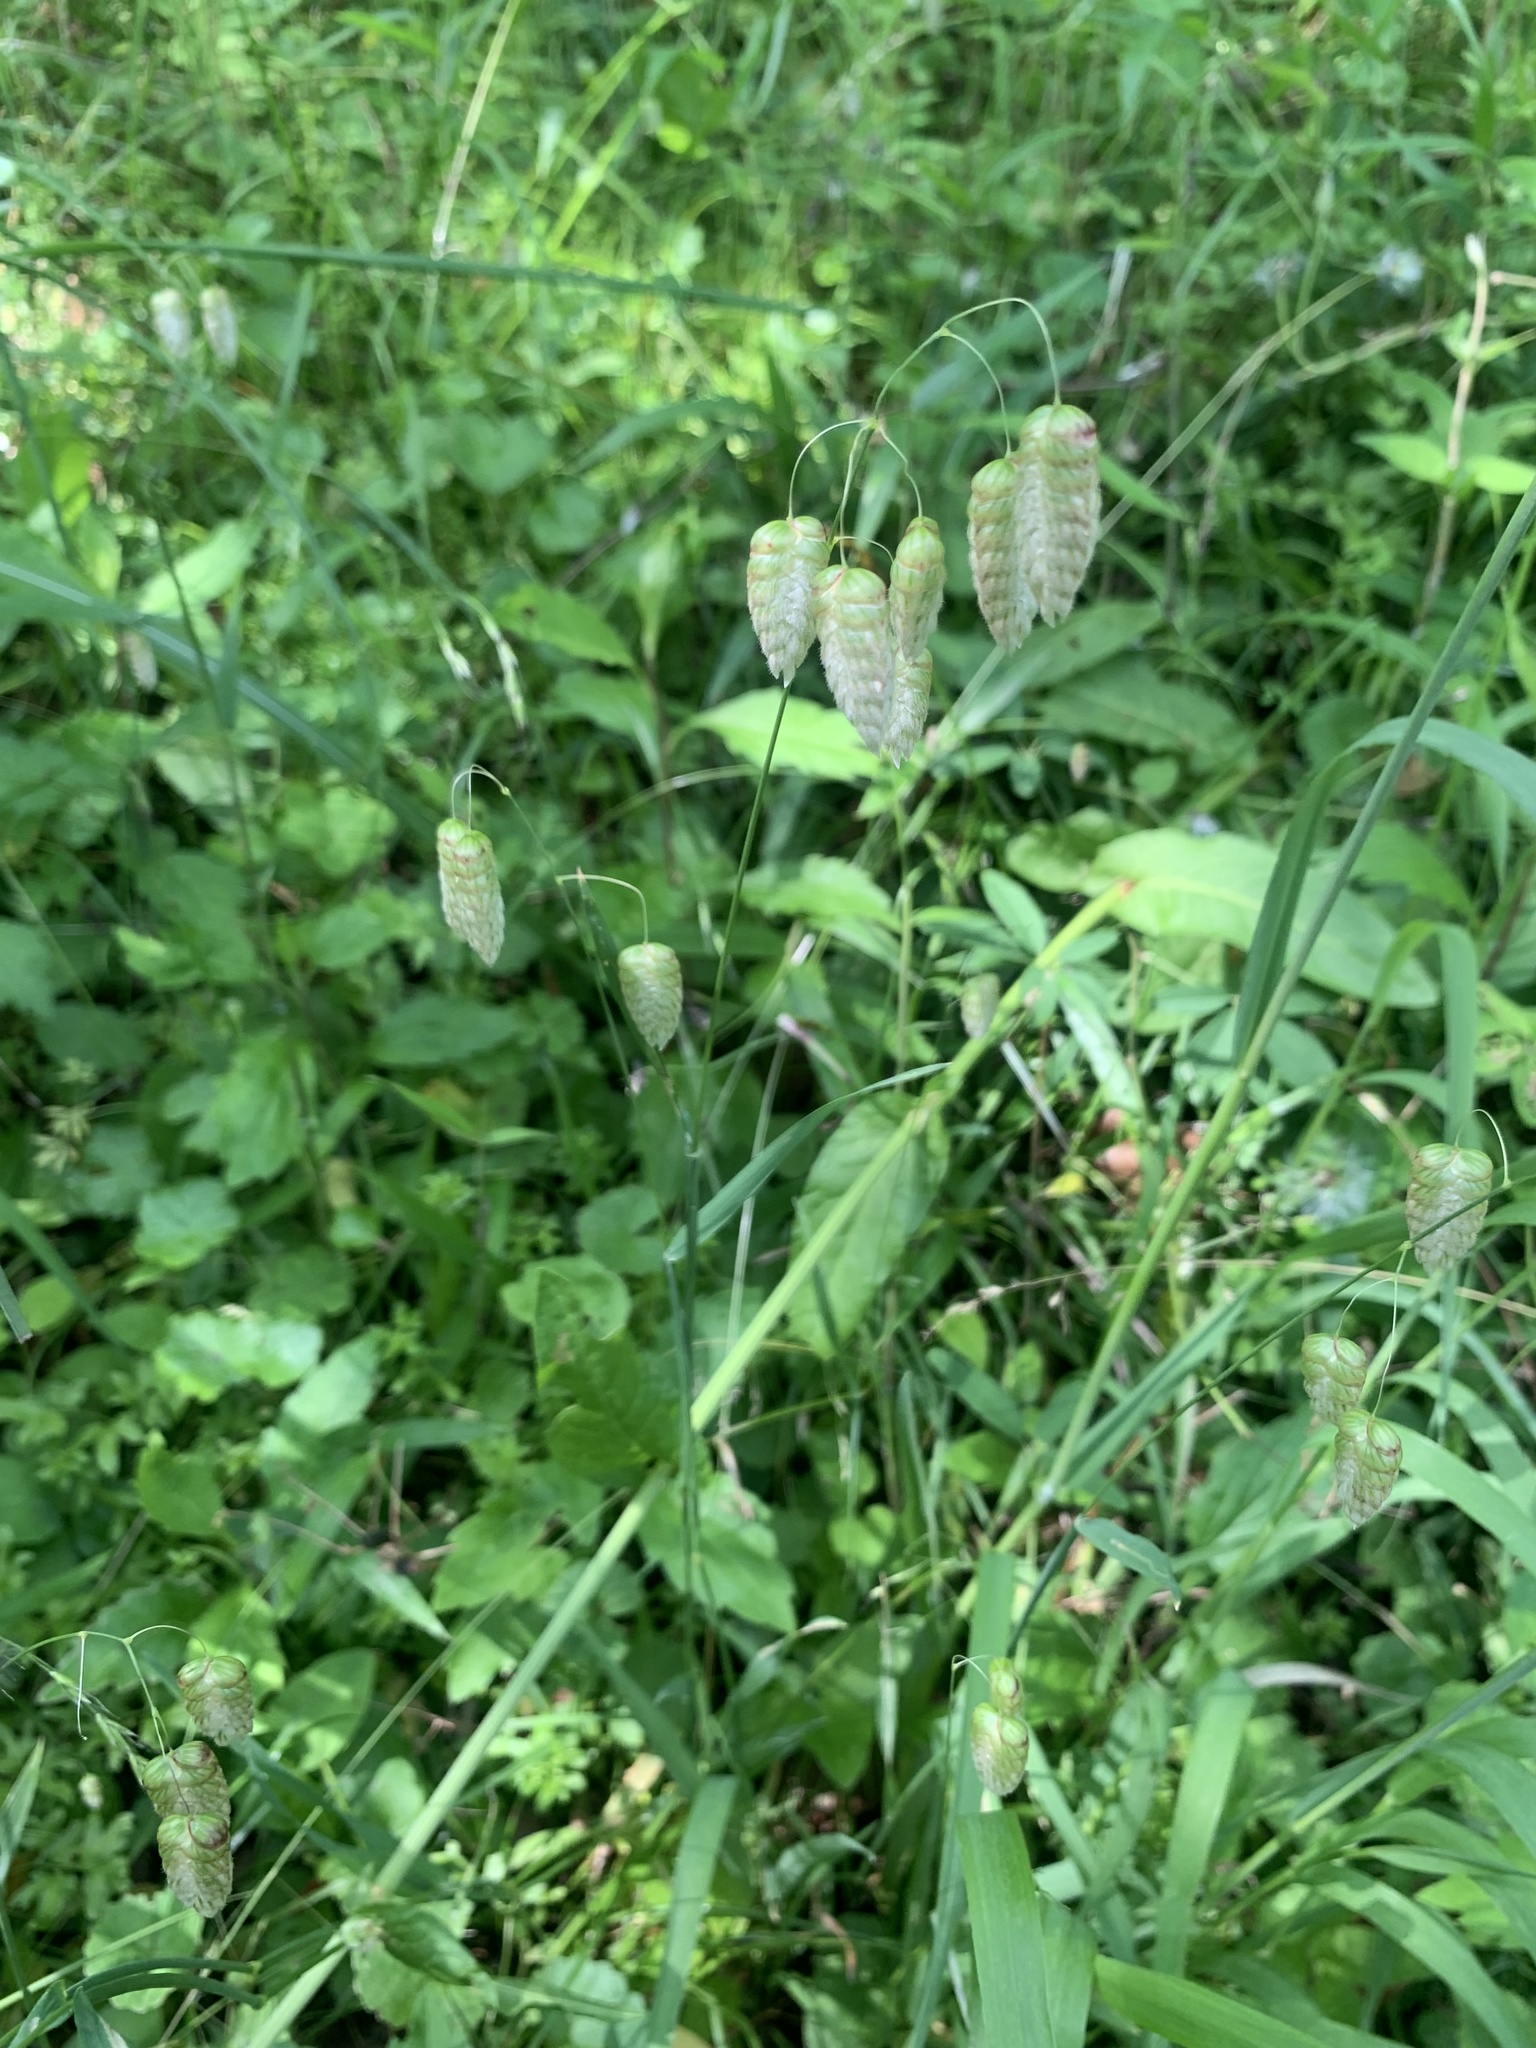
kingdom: Plantae
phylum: Tracheophyta
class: Liliopsida
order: Poales
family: Poaceae
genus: Briza
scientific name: Briza maxima
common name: Big quakinggrass
